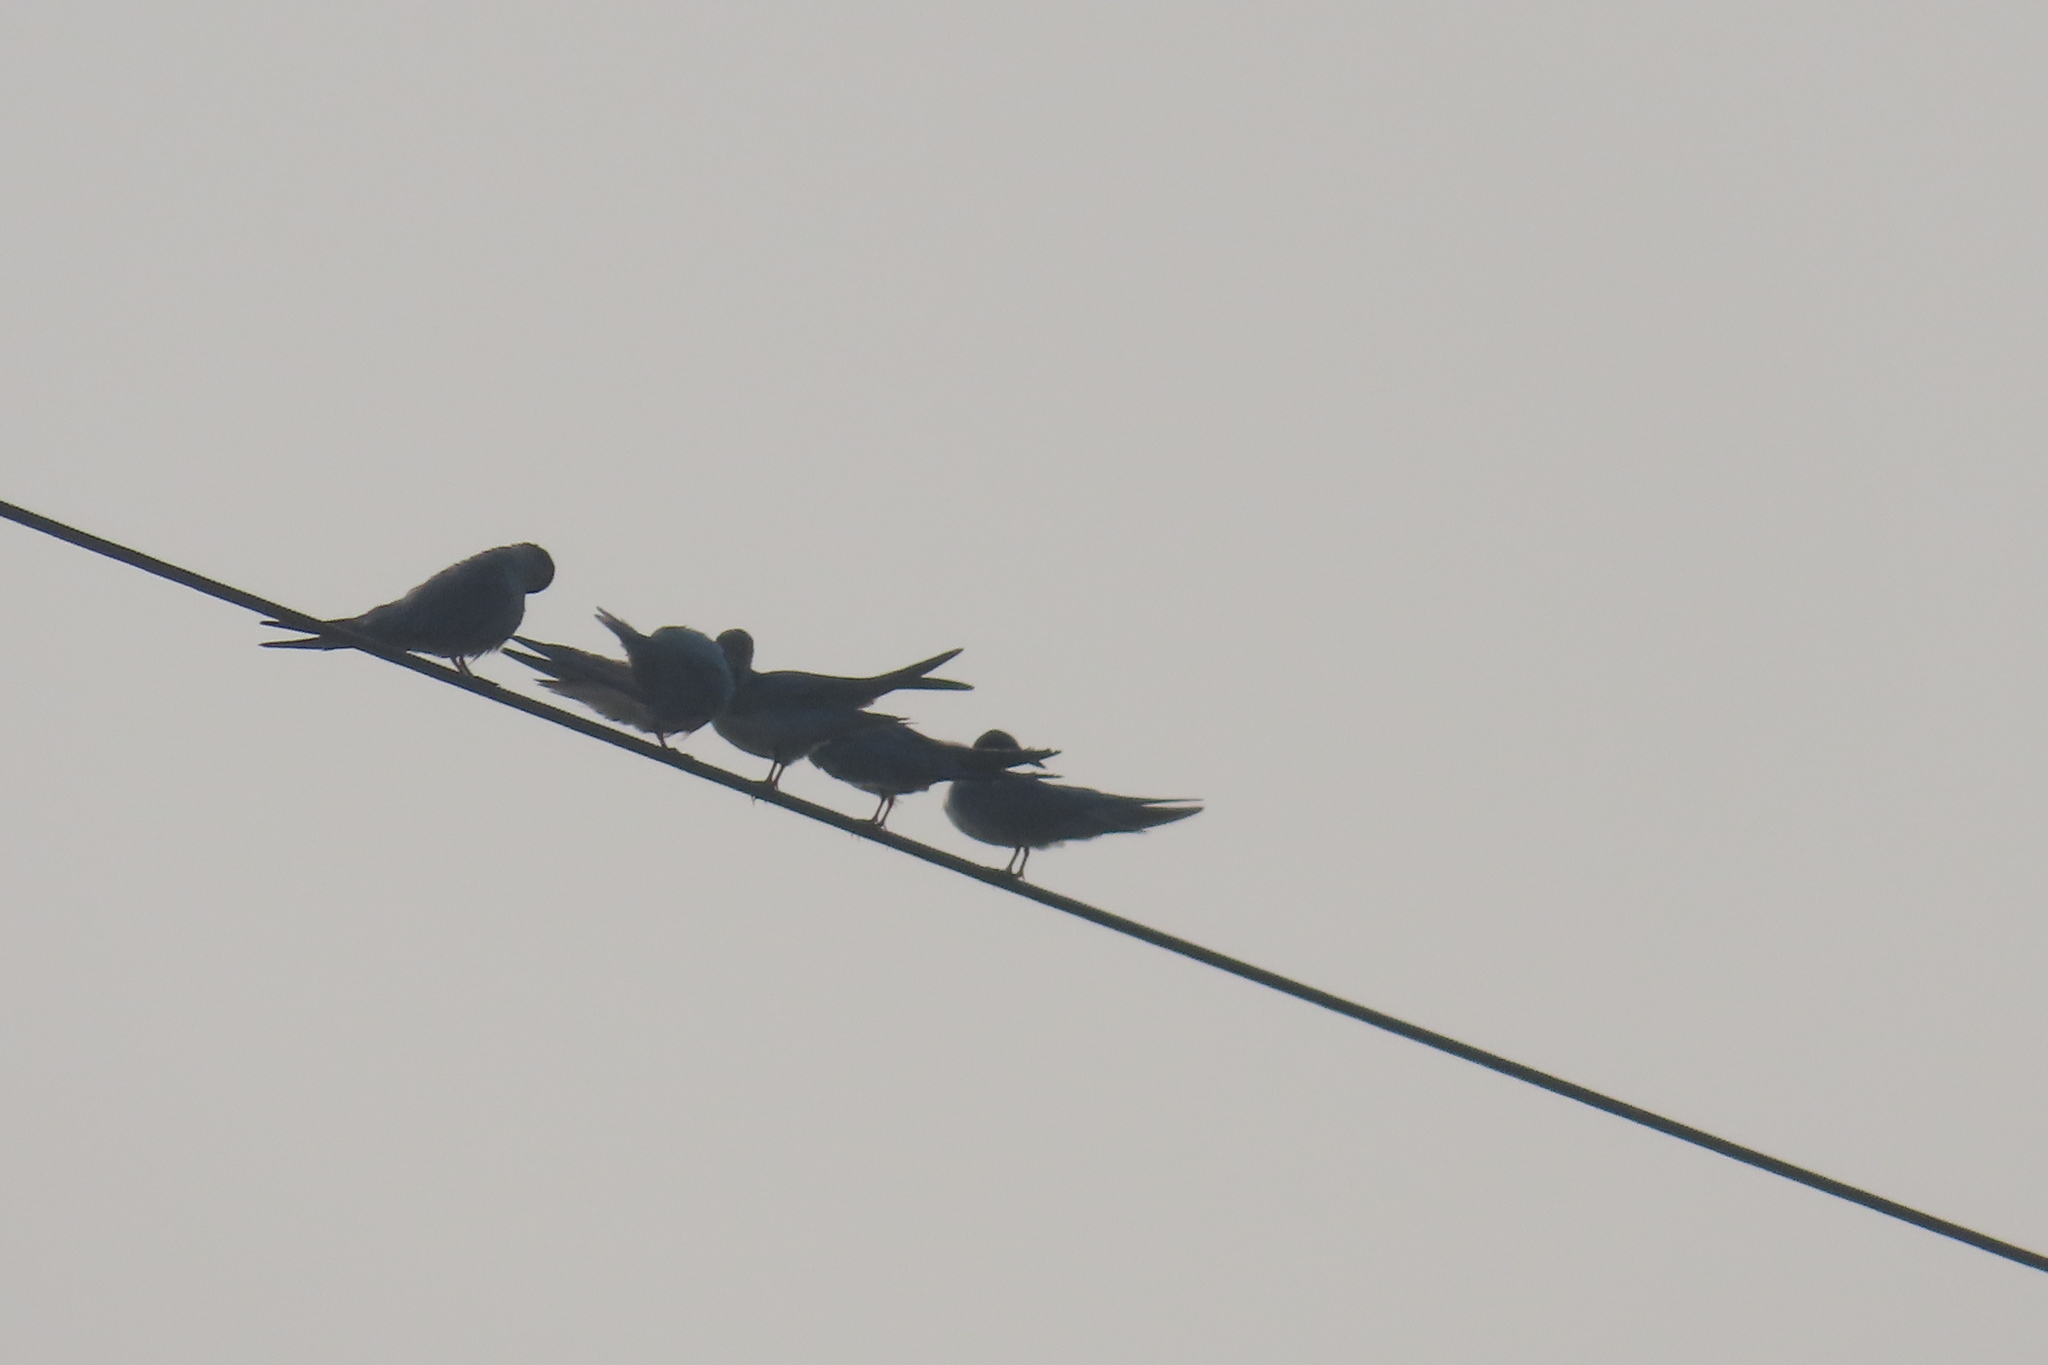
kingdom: Animalia
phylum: Chordata
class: Aves
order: Charadriiformes
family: Laridae
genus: Chlidonias
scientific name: Chlidonias hybrida
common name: Whiskered tern
